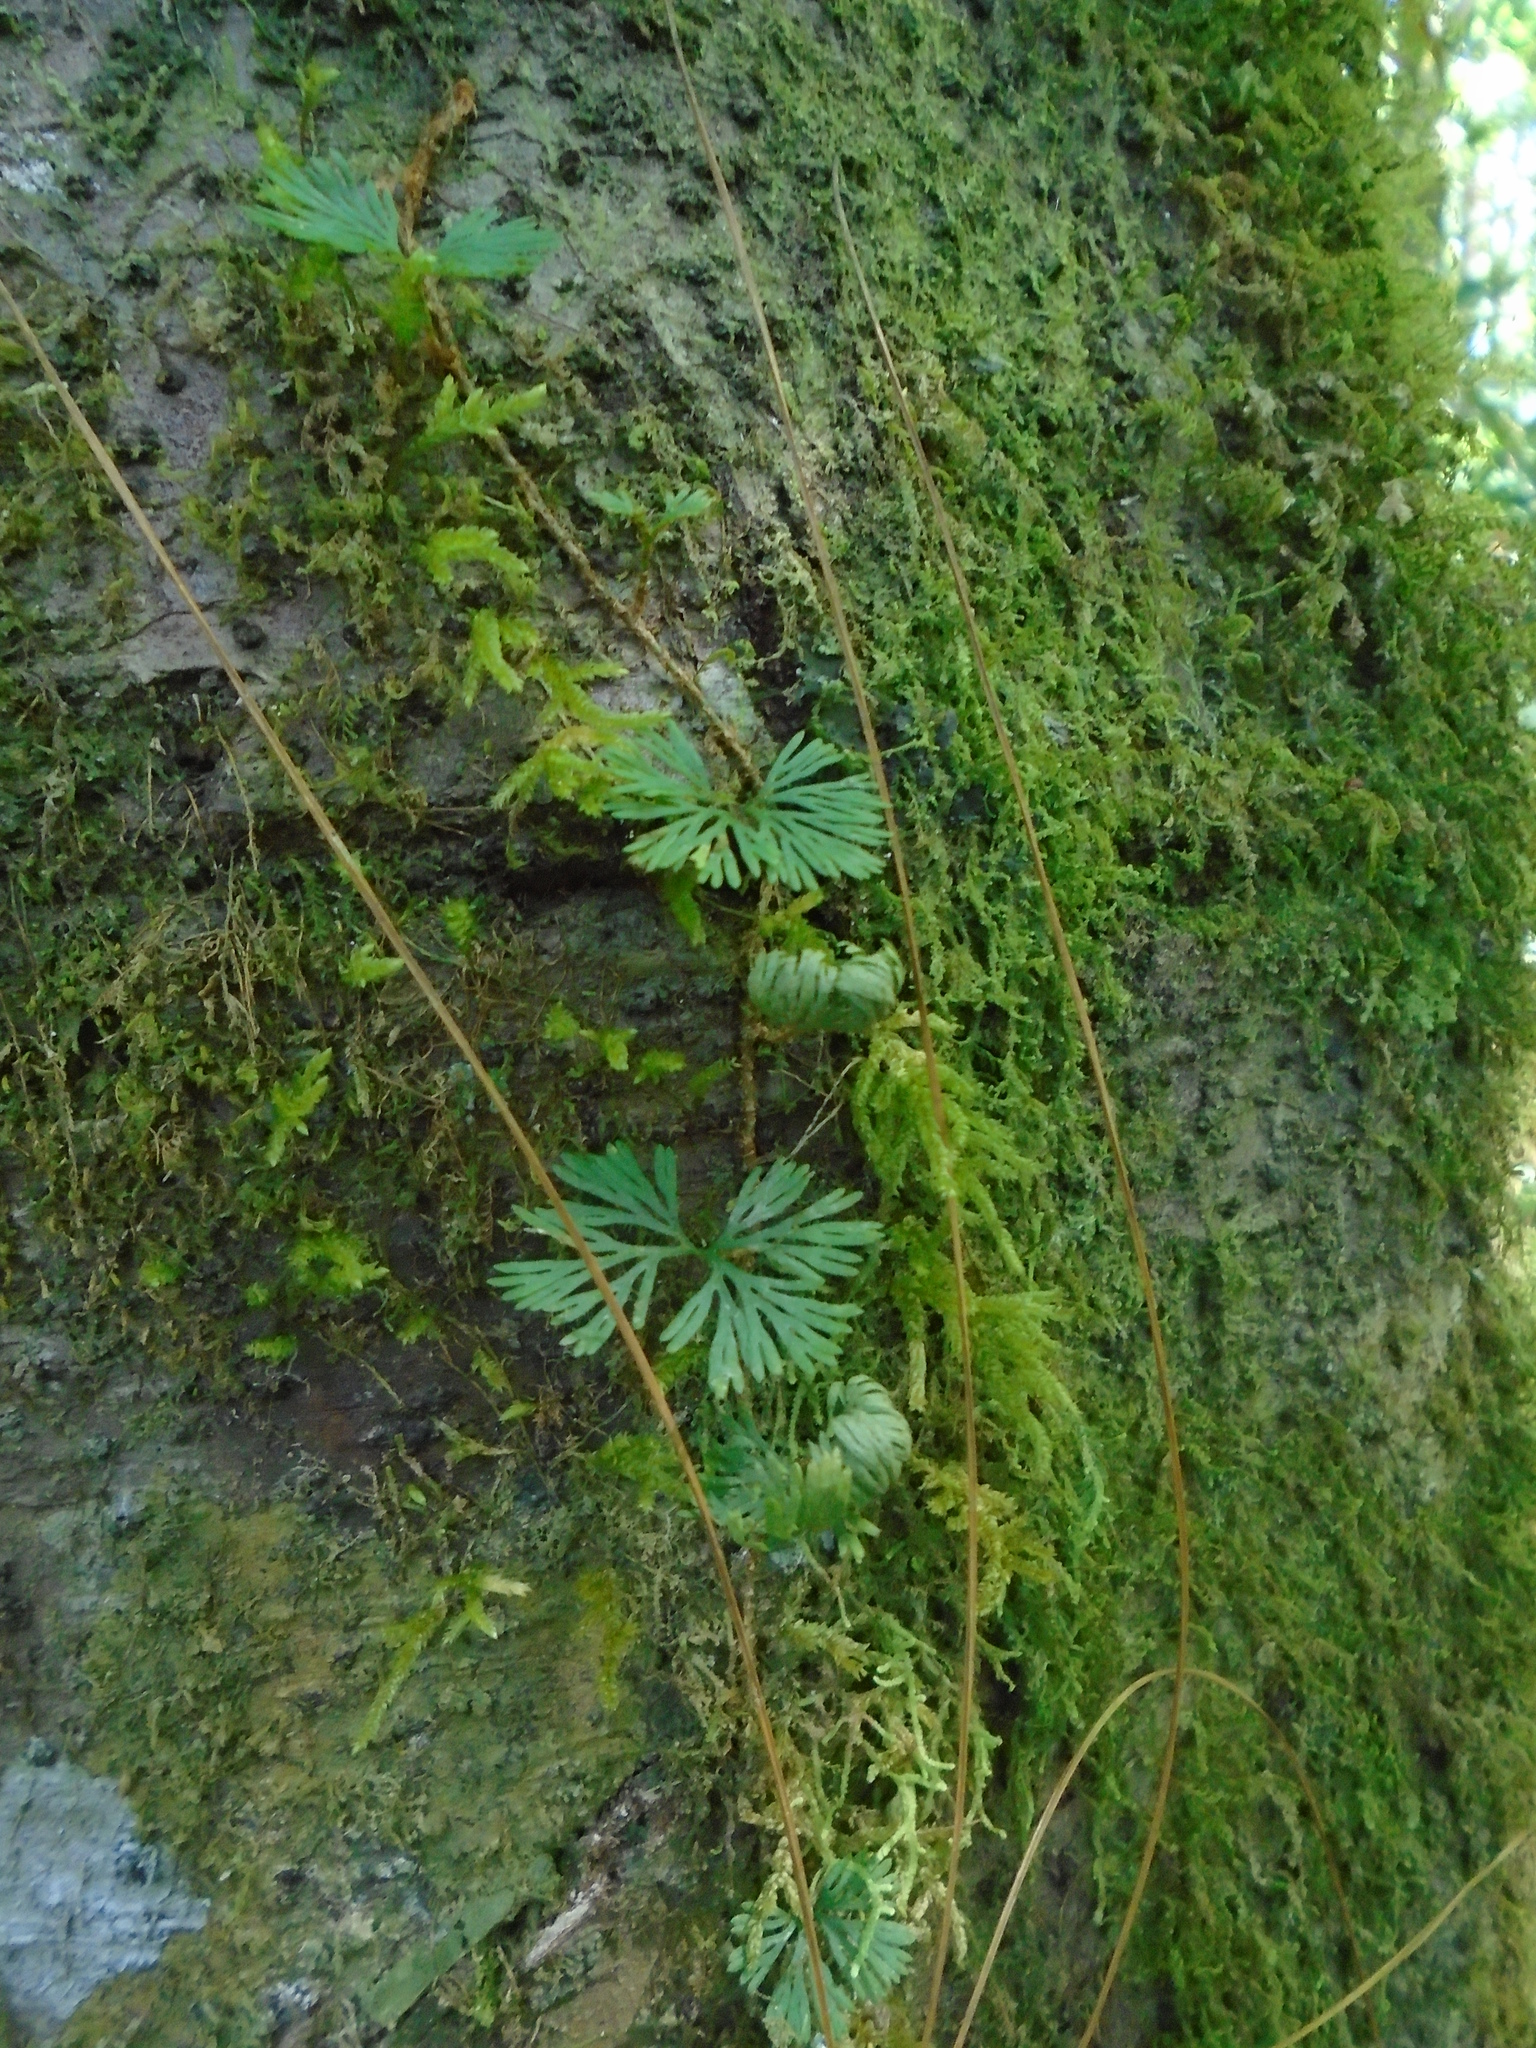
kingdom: Plantae
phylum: Tracheophyta
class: Polypodiopsida
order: Polypodiales
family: Dryopteridaceae
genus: Elaphoglossum
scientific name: Elaphoglossum peltatum
